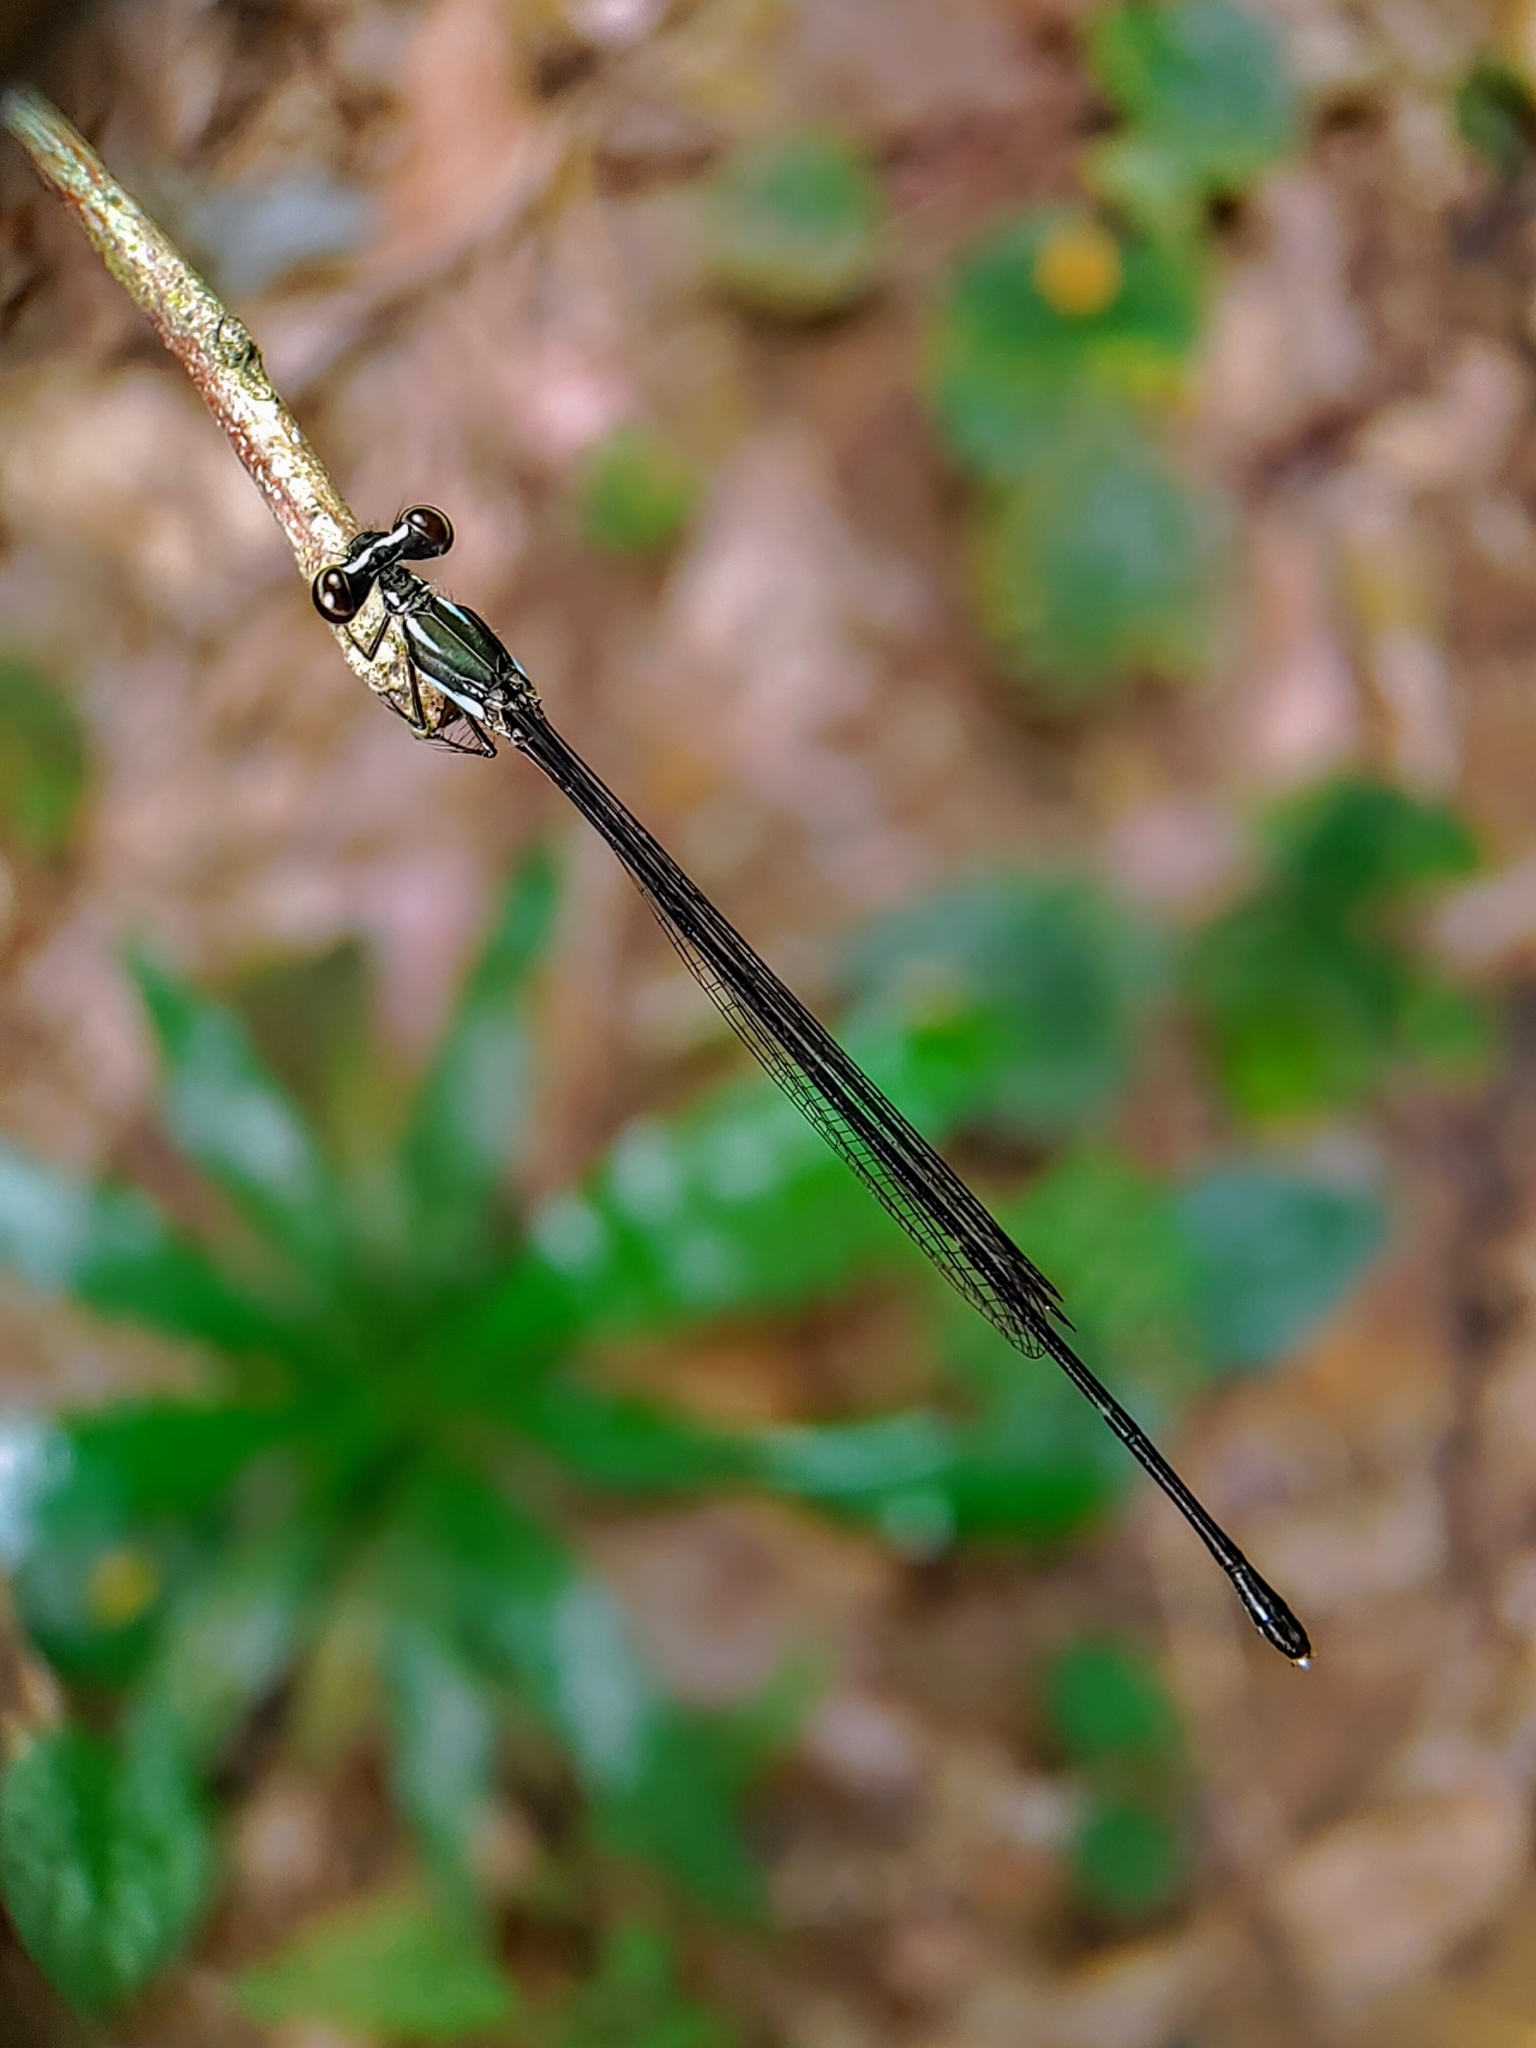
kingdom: Animalia
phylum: Arthropoda
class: Insecta
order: Odonata
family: Platycnemididae
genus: Prodasineura
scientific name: Prodasineura collaris
